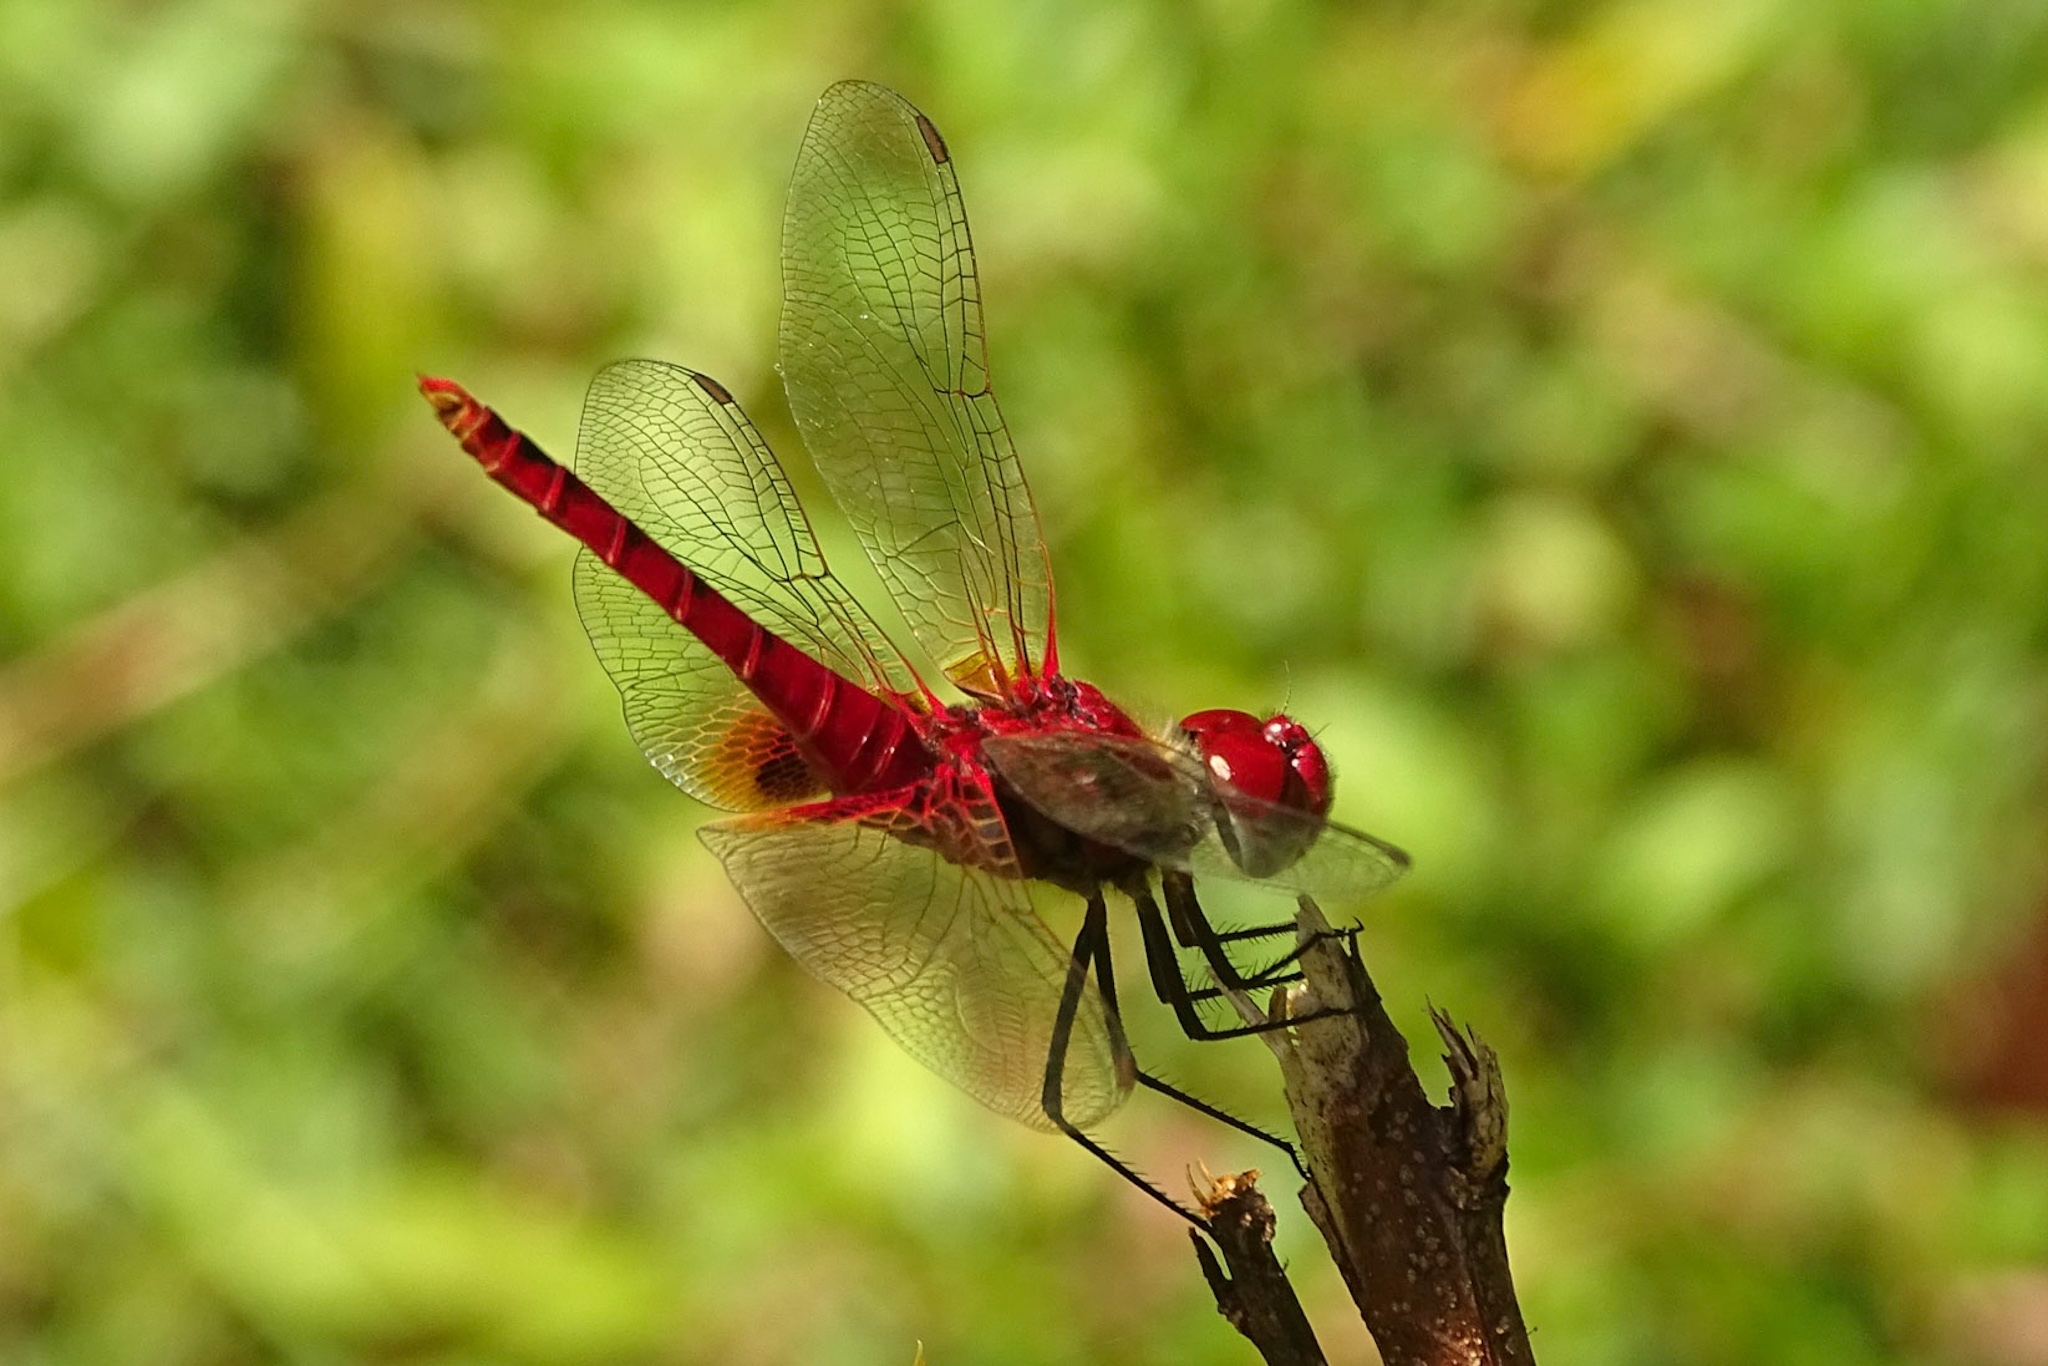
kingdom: Animalia
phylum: Arthropoda
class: Insecta
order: Odonata
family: Libellulidae
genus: Urothemis
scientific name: Urothemis signata
